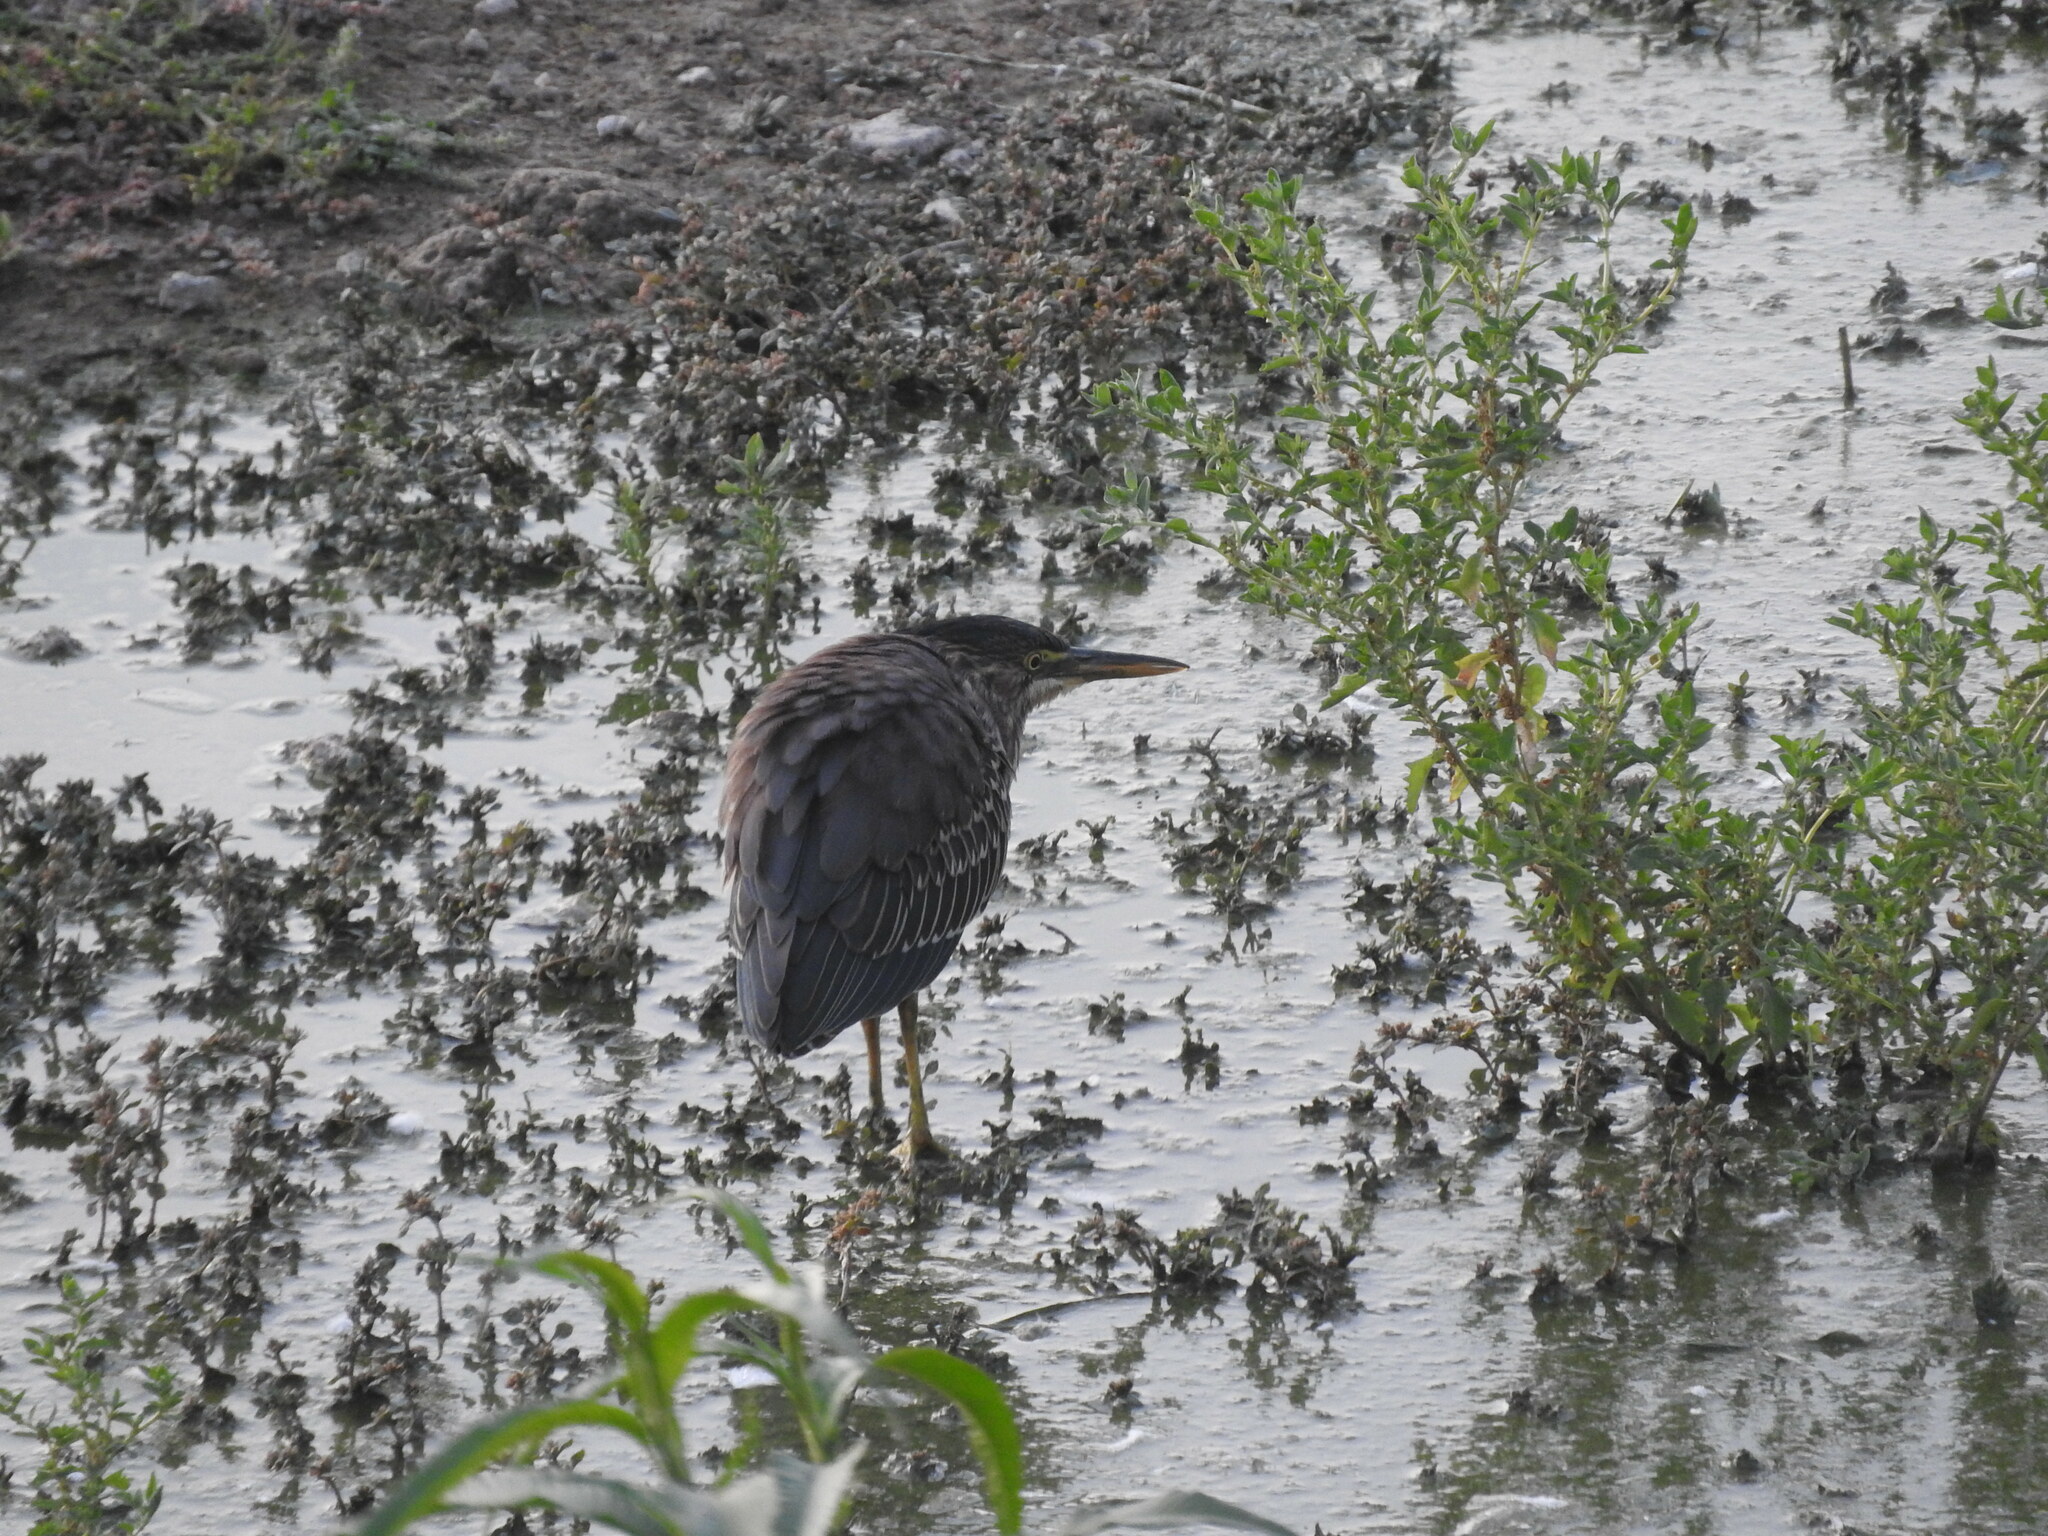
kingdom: Animalia
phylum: Chordata
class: Aves
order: Pelecaniformes
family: Ardeidae
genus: Butorides
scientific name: Butorides virescens
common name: Green heron
